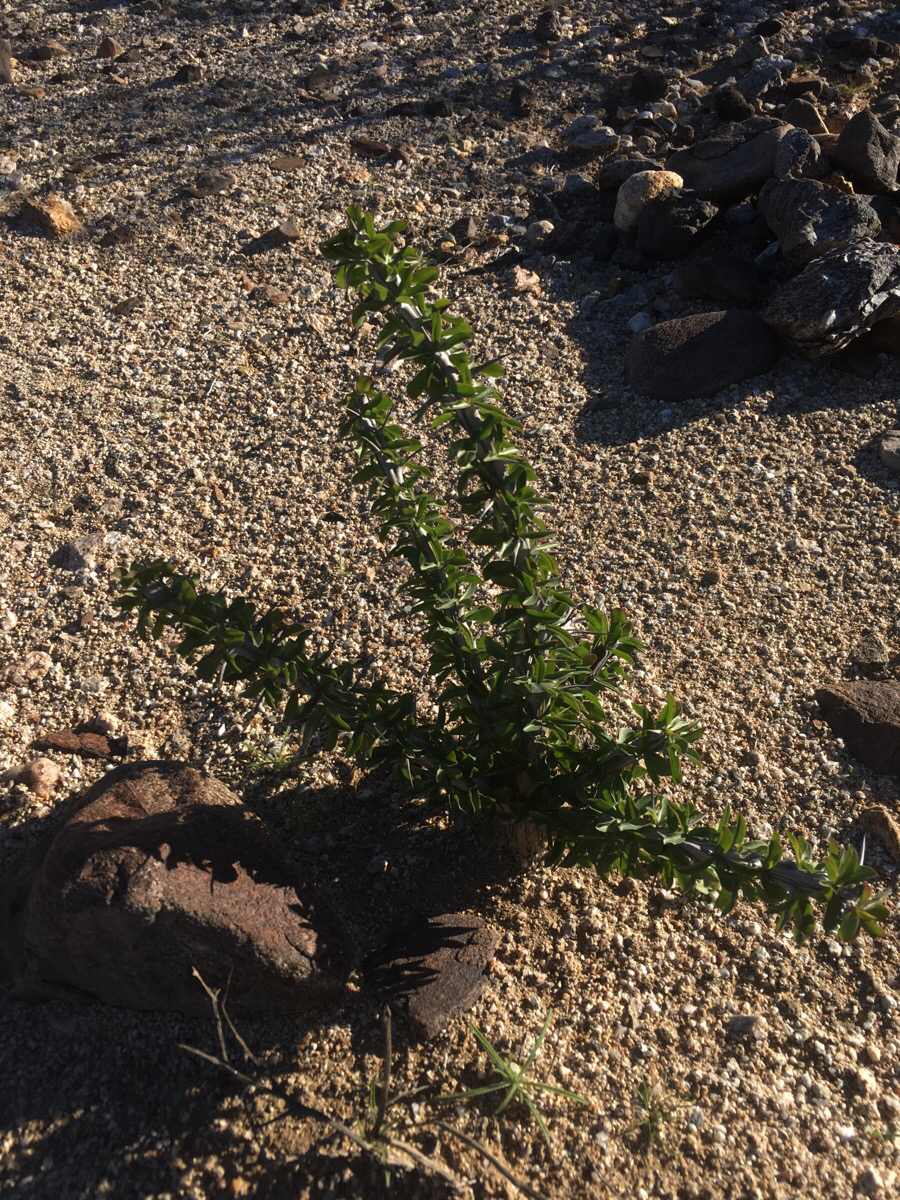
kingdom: Plantae
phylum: Tracheophyta
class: Magnoliopsida
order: Ericales
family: Fouquieriaceae
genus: Fouquieria
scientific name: Fouquieria splendens
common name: Vine-cactus
